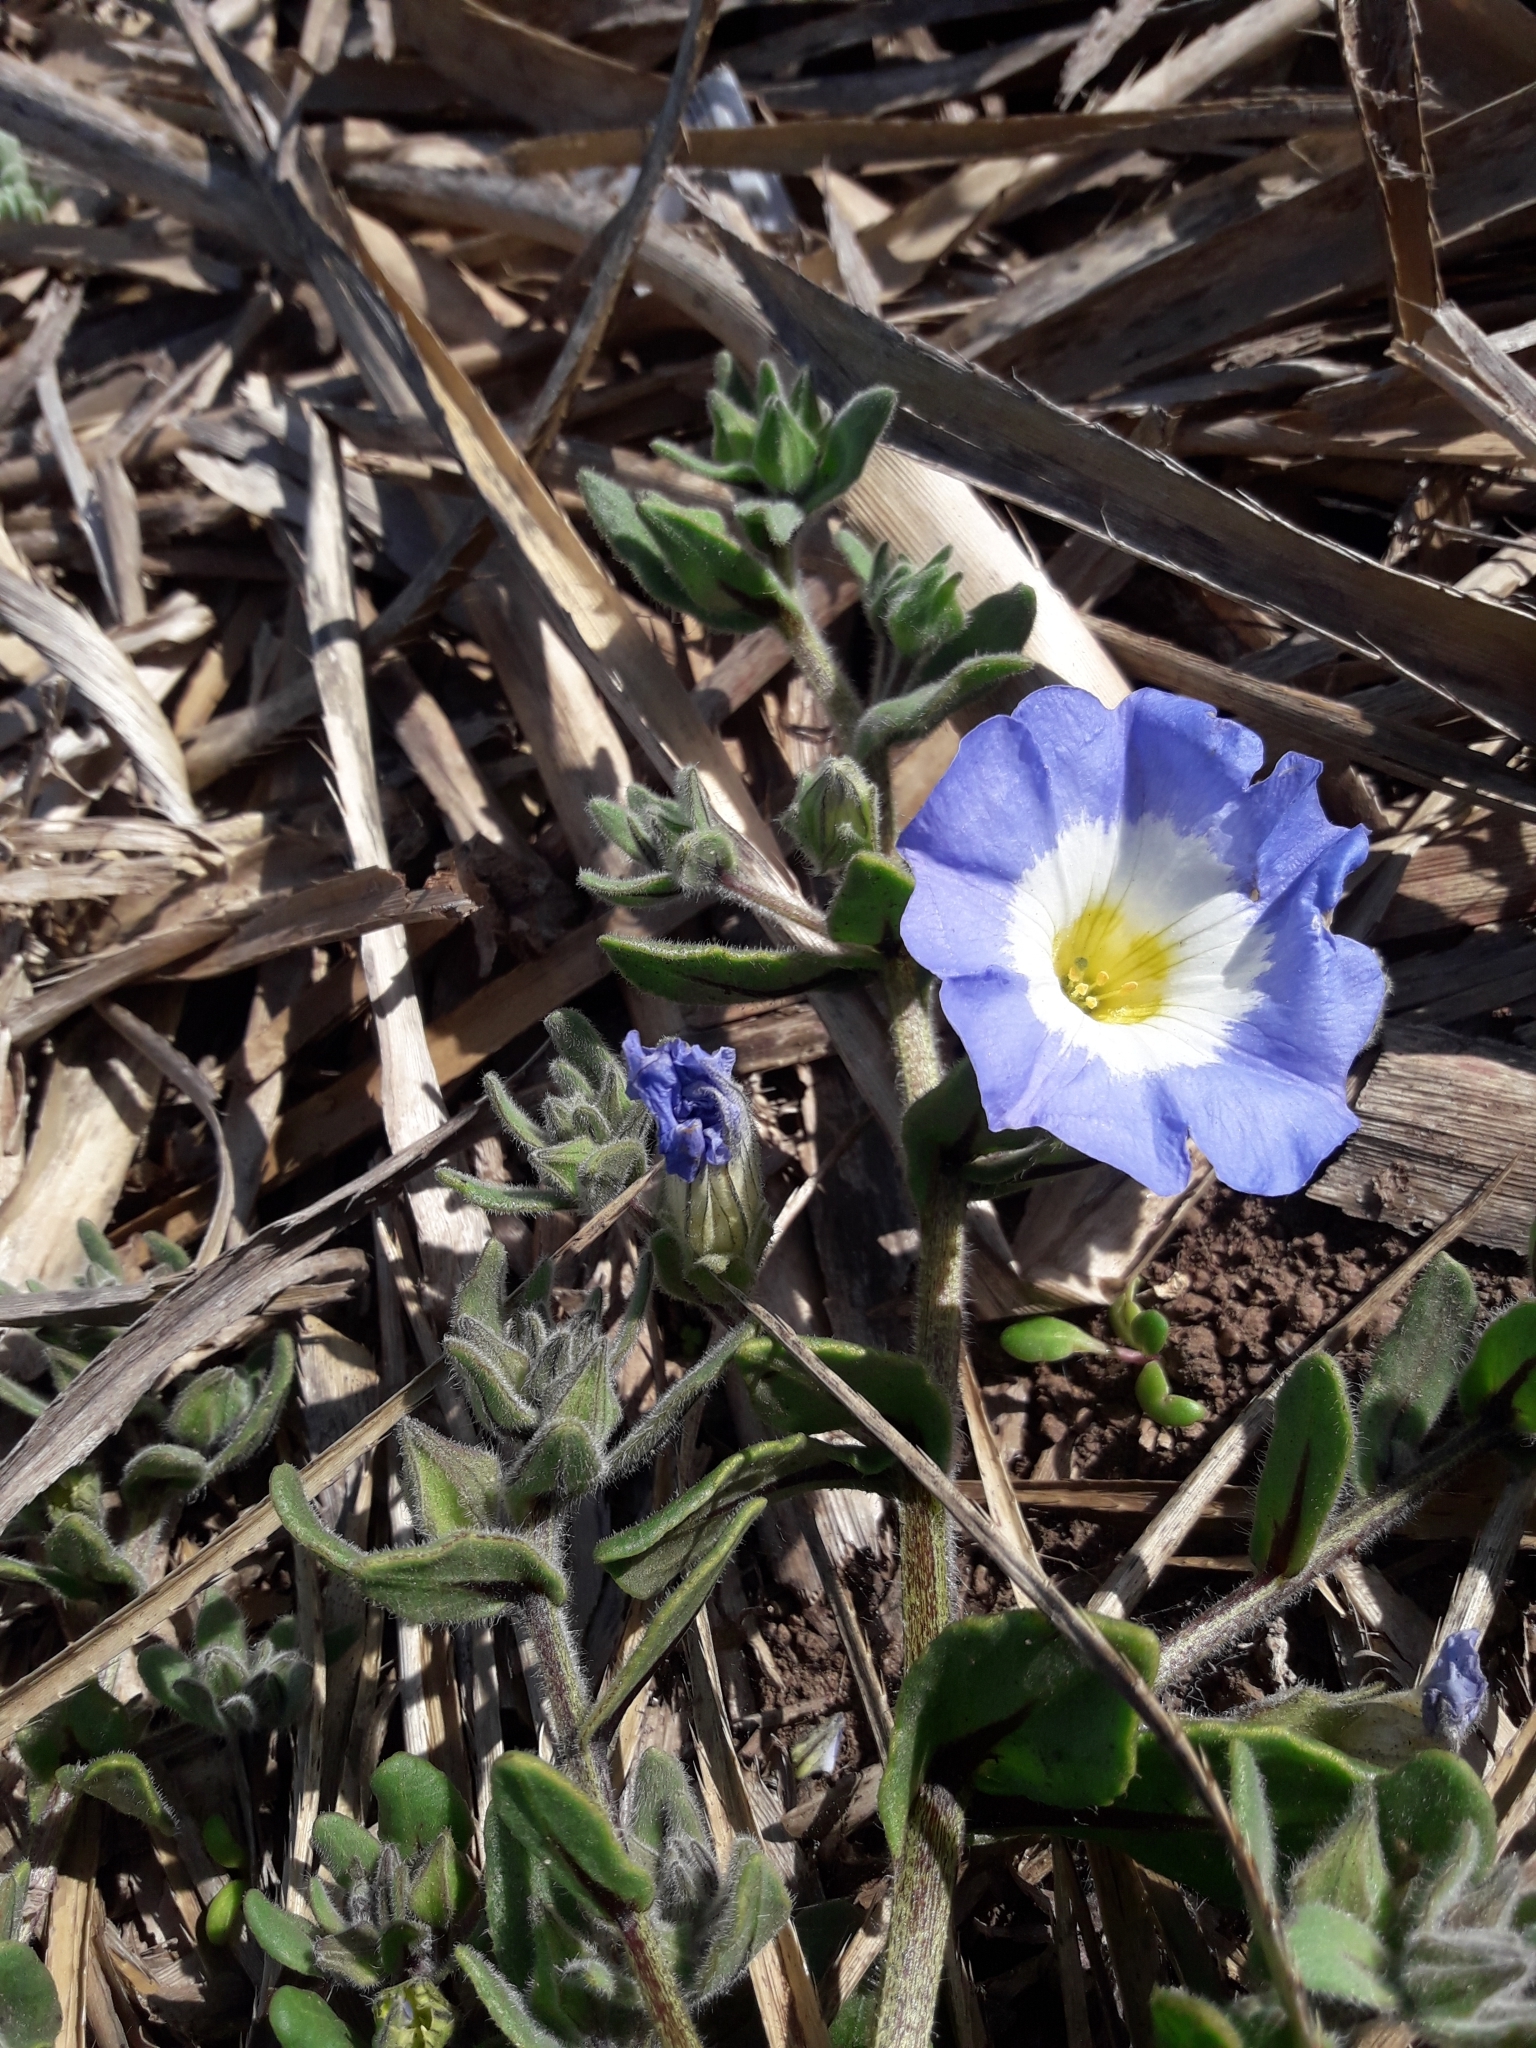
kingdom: Plantae
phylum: Tracheophyta
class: Magnoliopsida
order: Solanales
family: Solanaceae
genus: Nolana
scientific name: Nolana acuminata
